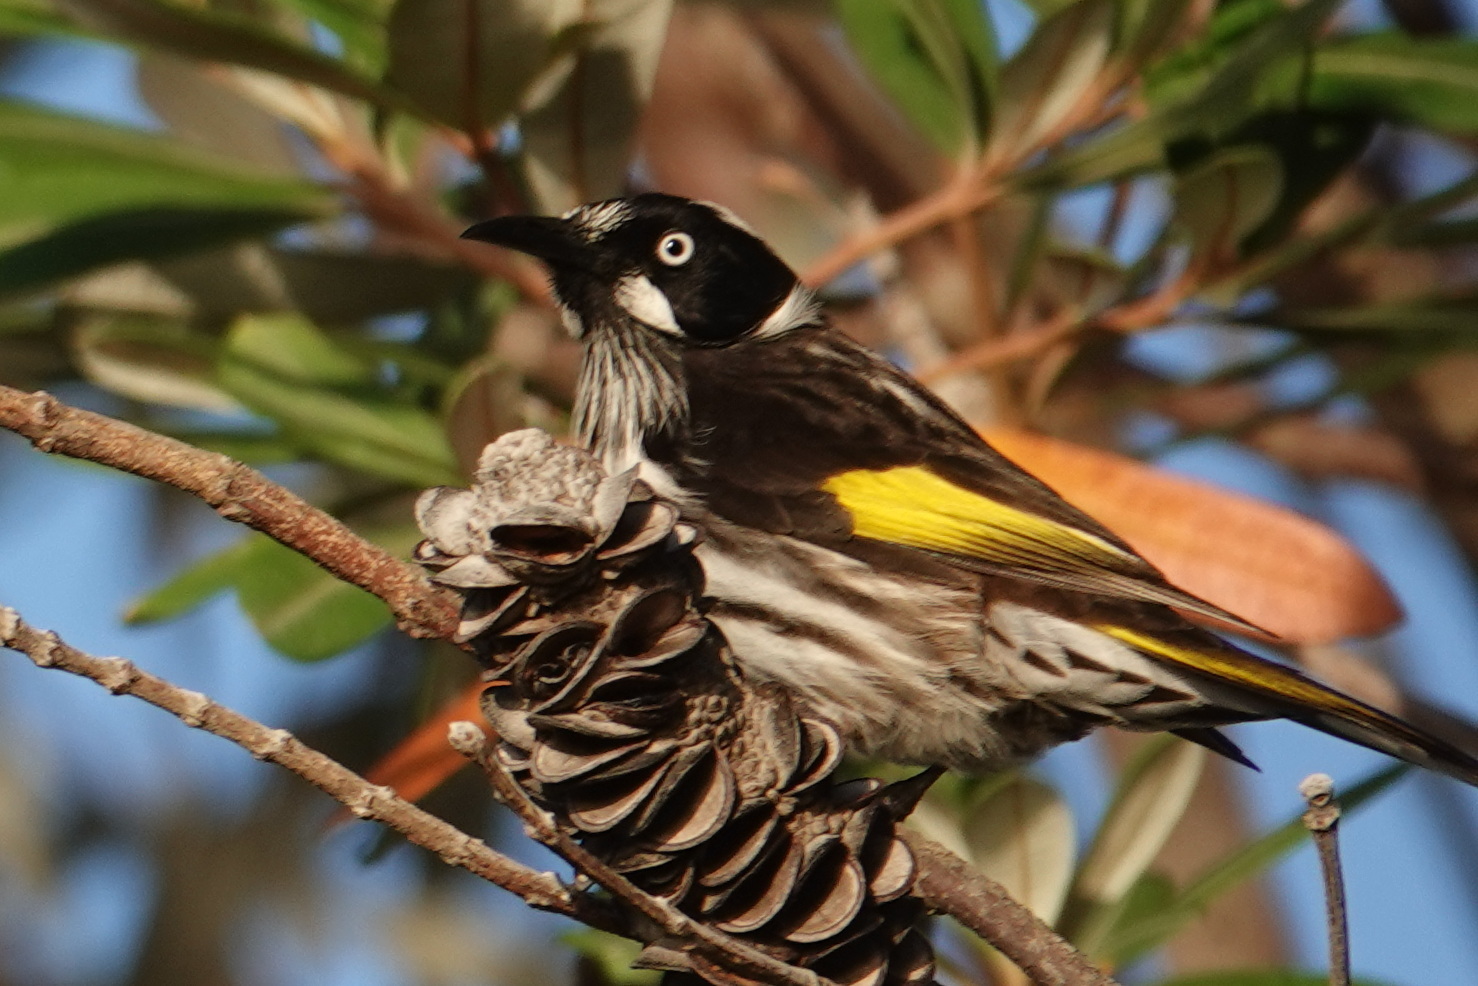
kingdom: Animalia
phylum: Chordata
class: Aves
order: Passeriformes
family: Meliphagidae
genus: Phylidonyris
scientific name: Phylidonyris novaehollandiae
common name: New holland honeyeater
